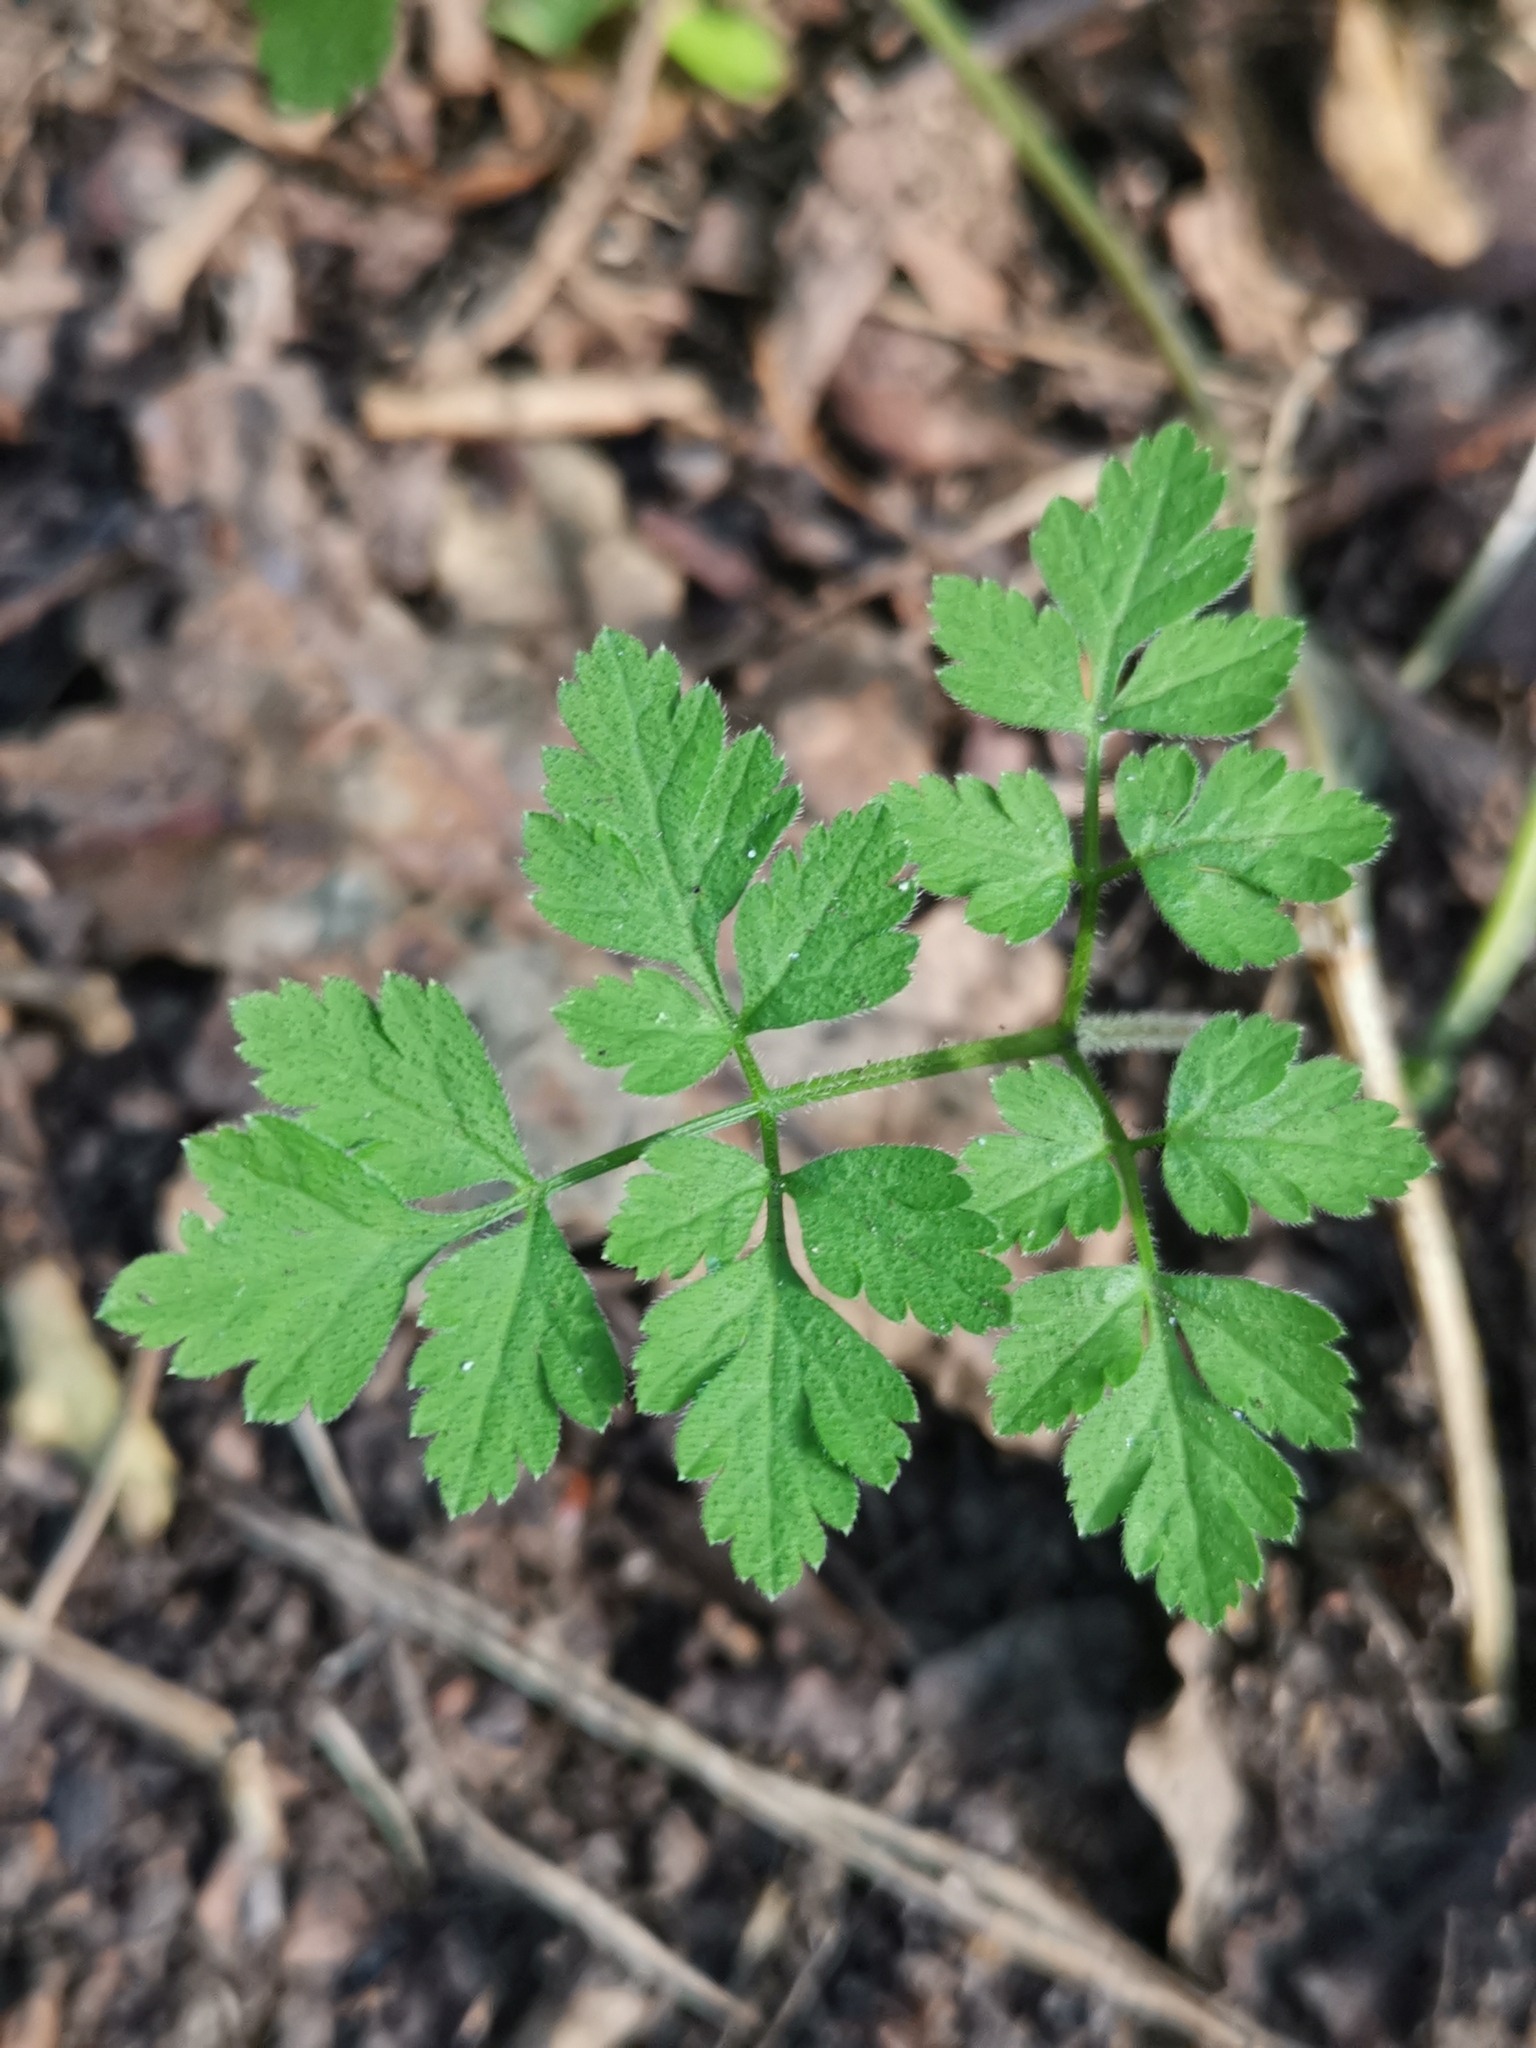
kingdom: Plantae
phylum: Tracheophyta
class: Magnoliopsida
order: Apiales
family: Apiaceae
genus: Chaerophyllum
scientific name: Chaerophyllum temulum
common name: Rough chervil
